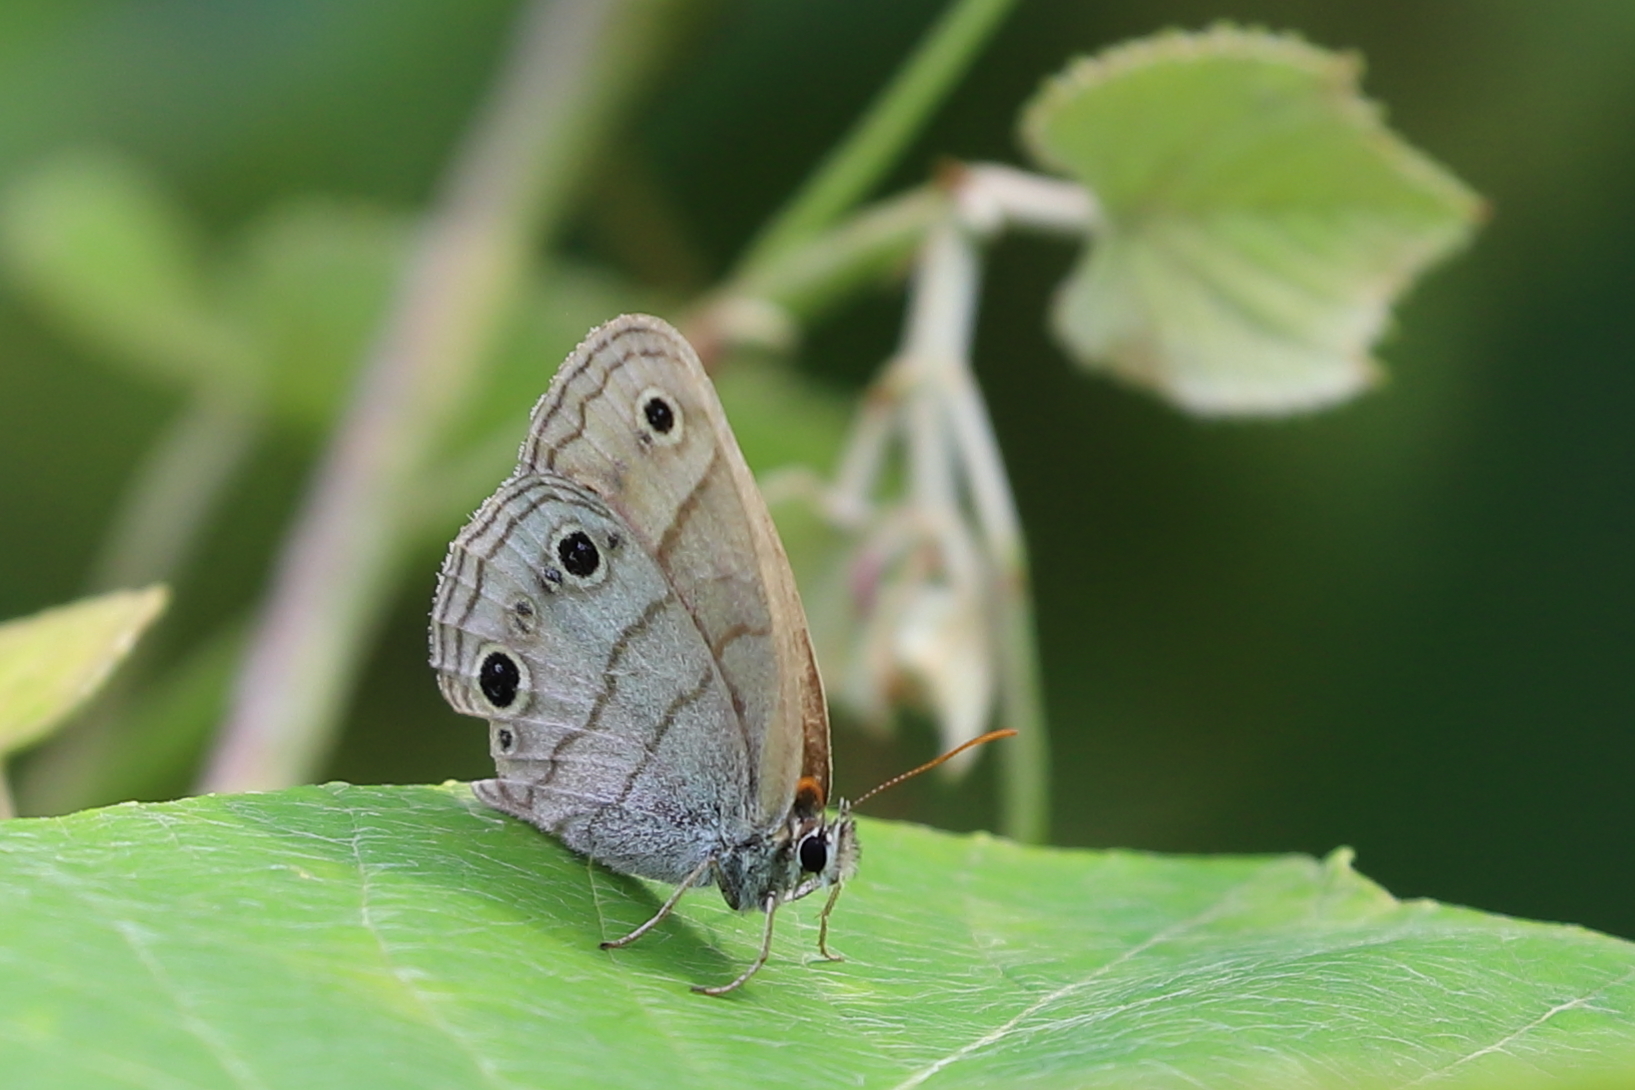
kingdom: Animalia
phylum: Arthropoda
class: Insecta
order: Lepidoptera
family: Nymphalidae
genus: Euptychia
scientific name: Euptychia cymela
